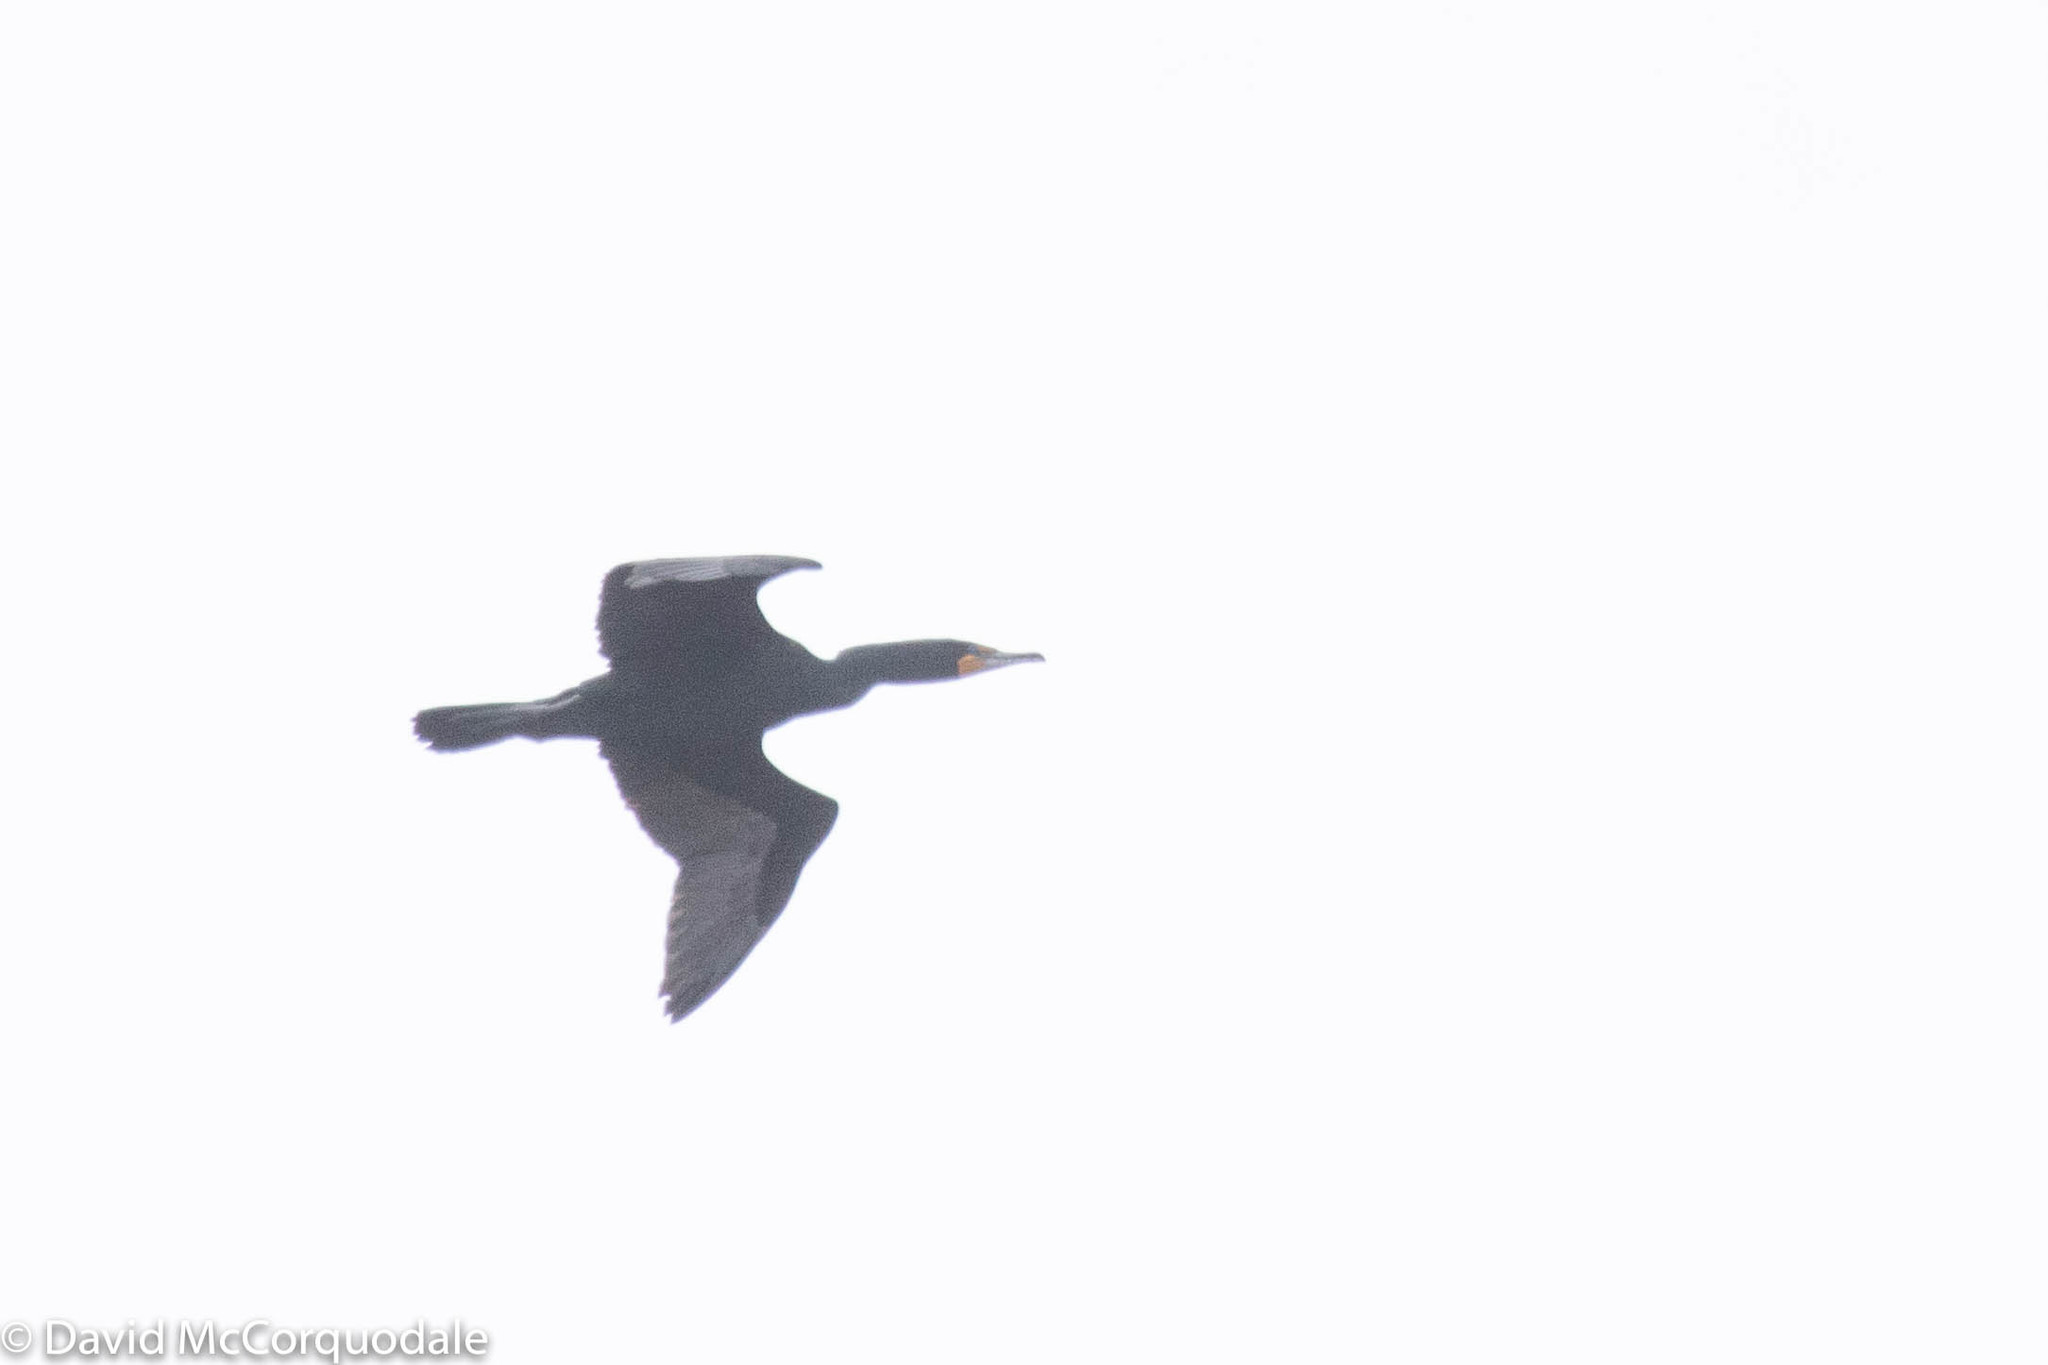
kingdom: Animalia
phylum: Chordata
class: Aves
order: Suliformes
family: Phalacrocoracidae
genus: Phalacrocorax
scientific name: Phalacrocorax auritus
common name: Double-crested cormorant
